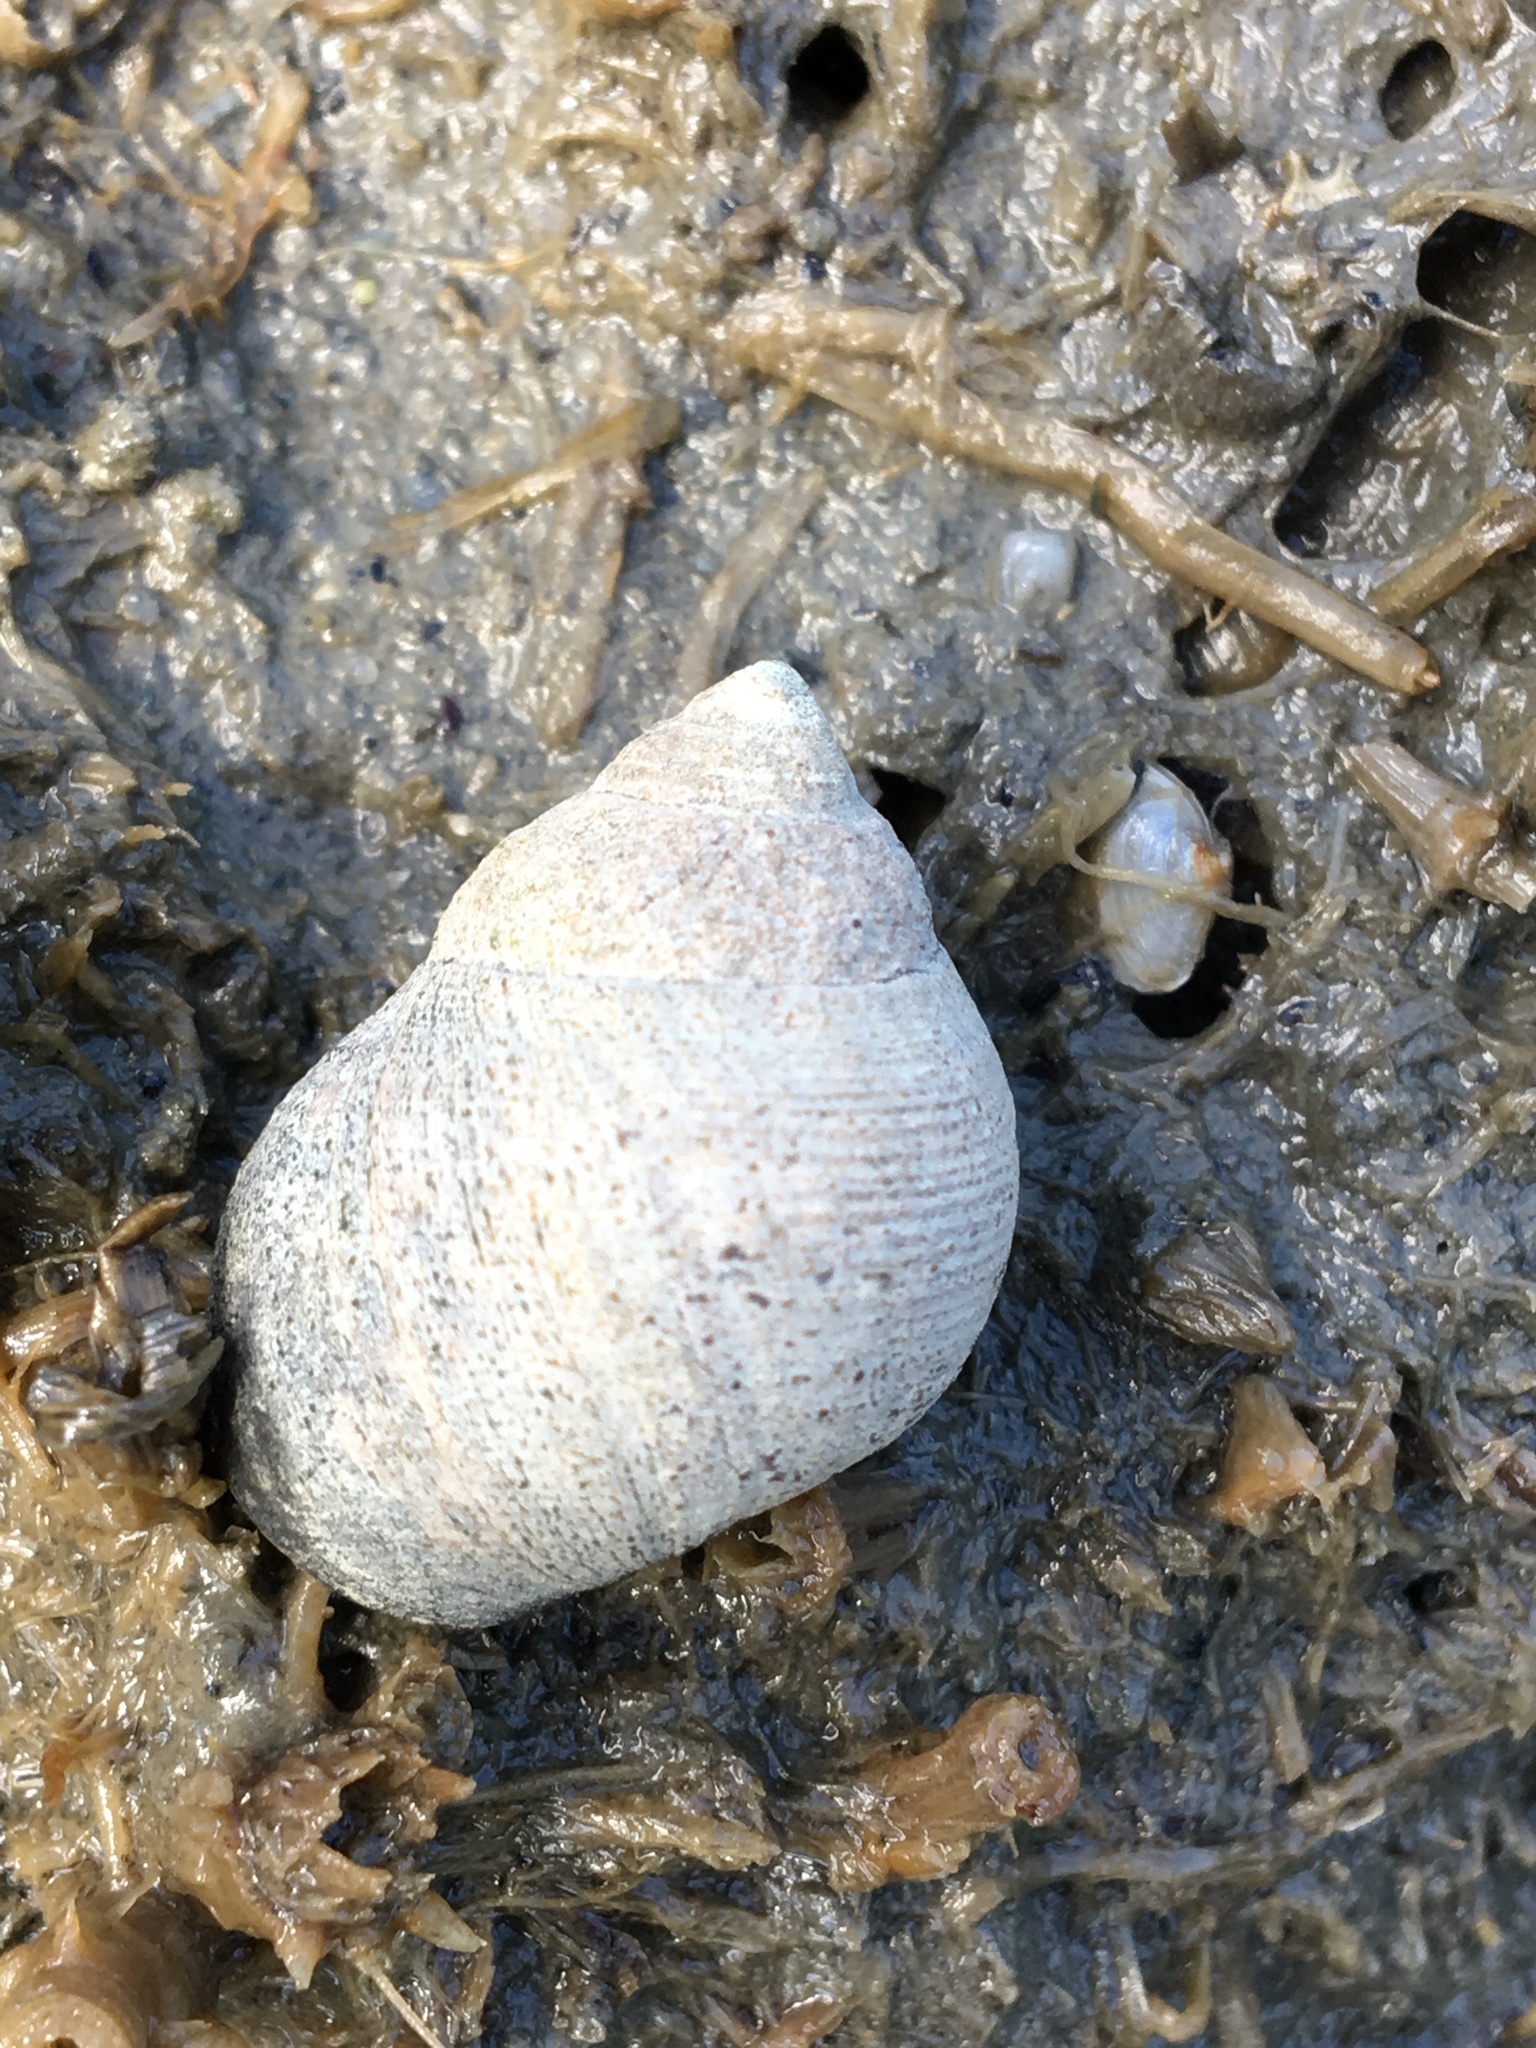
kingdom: Animalia
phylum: Mollusca
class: Gastropoda
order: Littorinimorpha
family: Littorinidae
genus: Littorina
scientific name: Littorina littorea
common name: Common periwinkle
